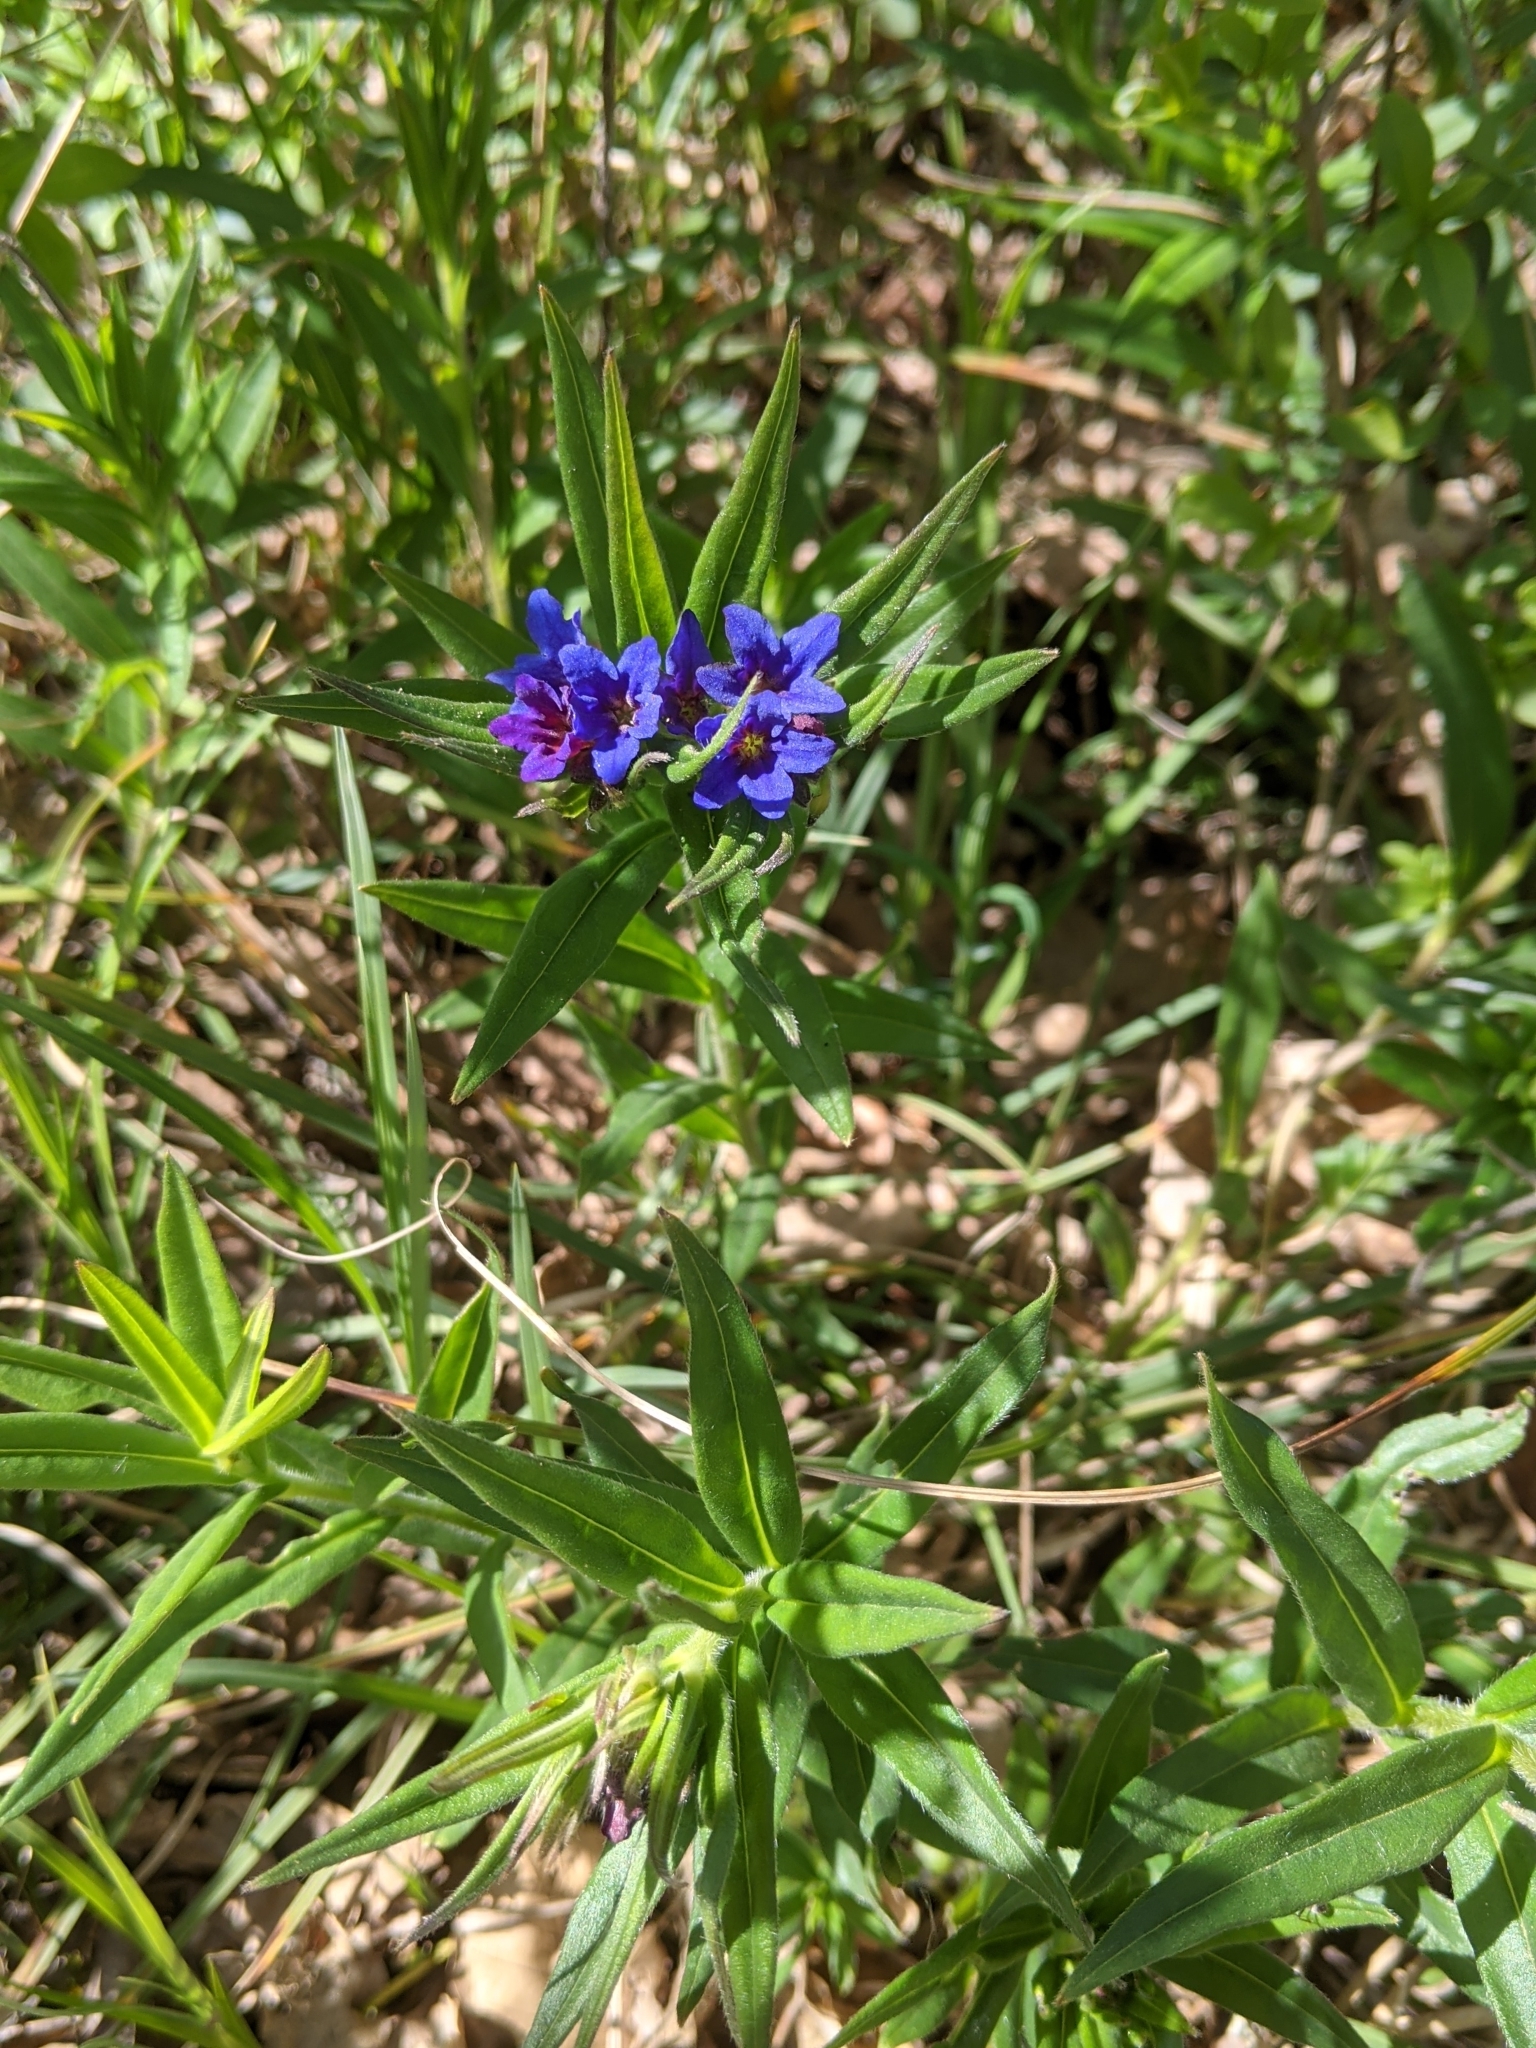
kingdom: Plantae
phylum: Tracheophyta
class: Magnoliopsida
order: Boraginales
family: Boraginaceae
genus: Aegonychon
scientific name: Aegonychon purpurocaeruleum
